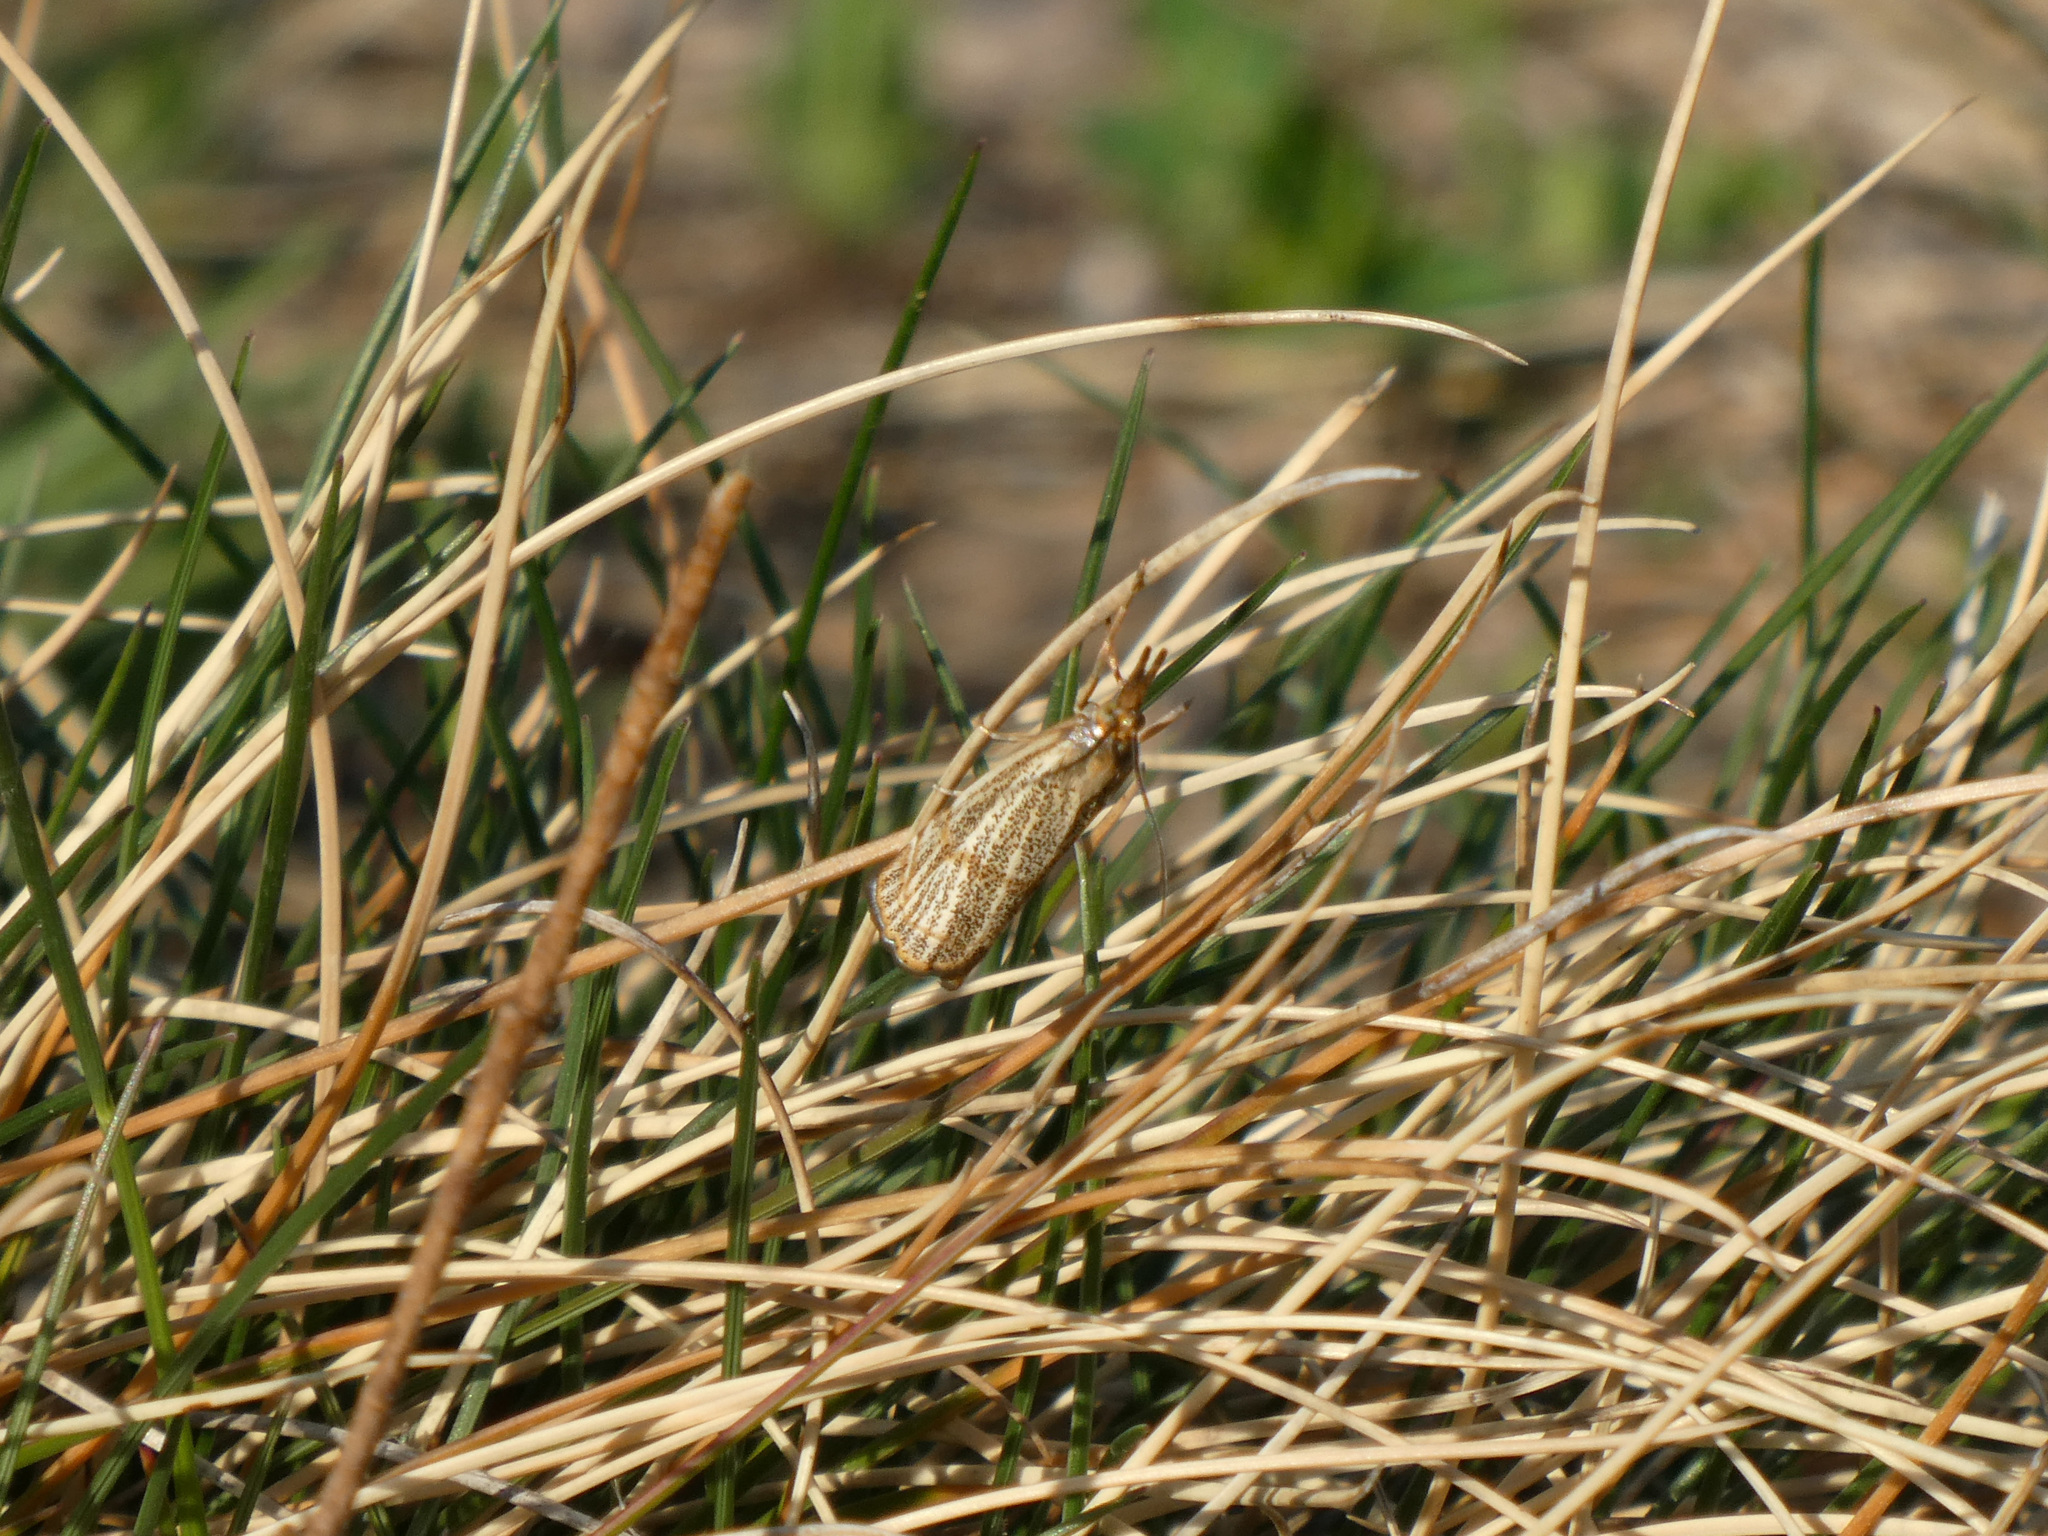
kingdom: Animalia
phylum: Arthropoda
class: Insecta
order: Lepidoptera
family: Crambidae
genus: Thisanotia
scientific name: Thisanotia chrysonuchella
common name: Powdered grass-veneer
